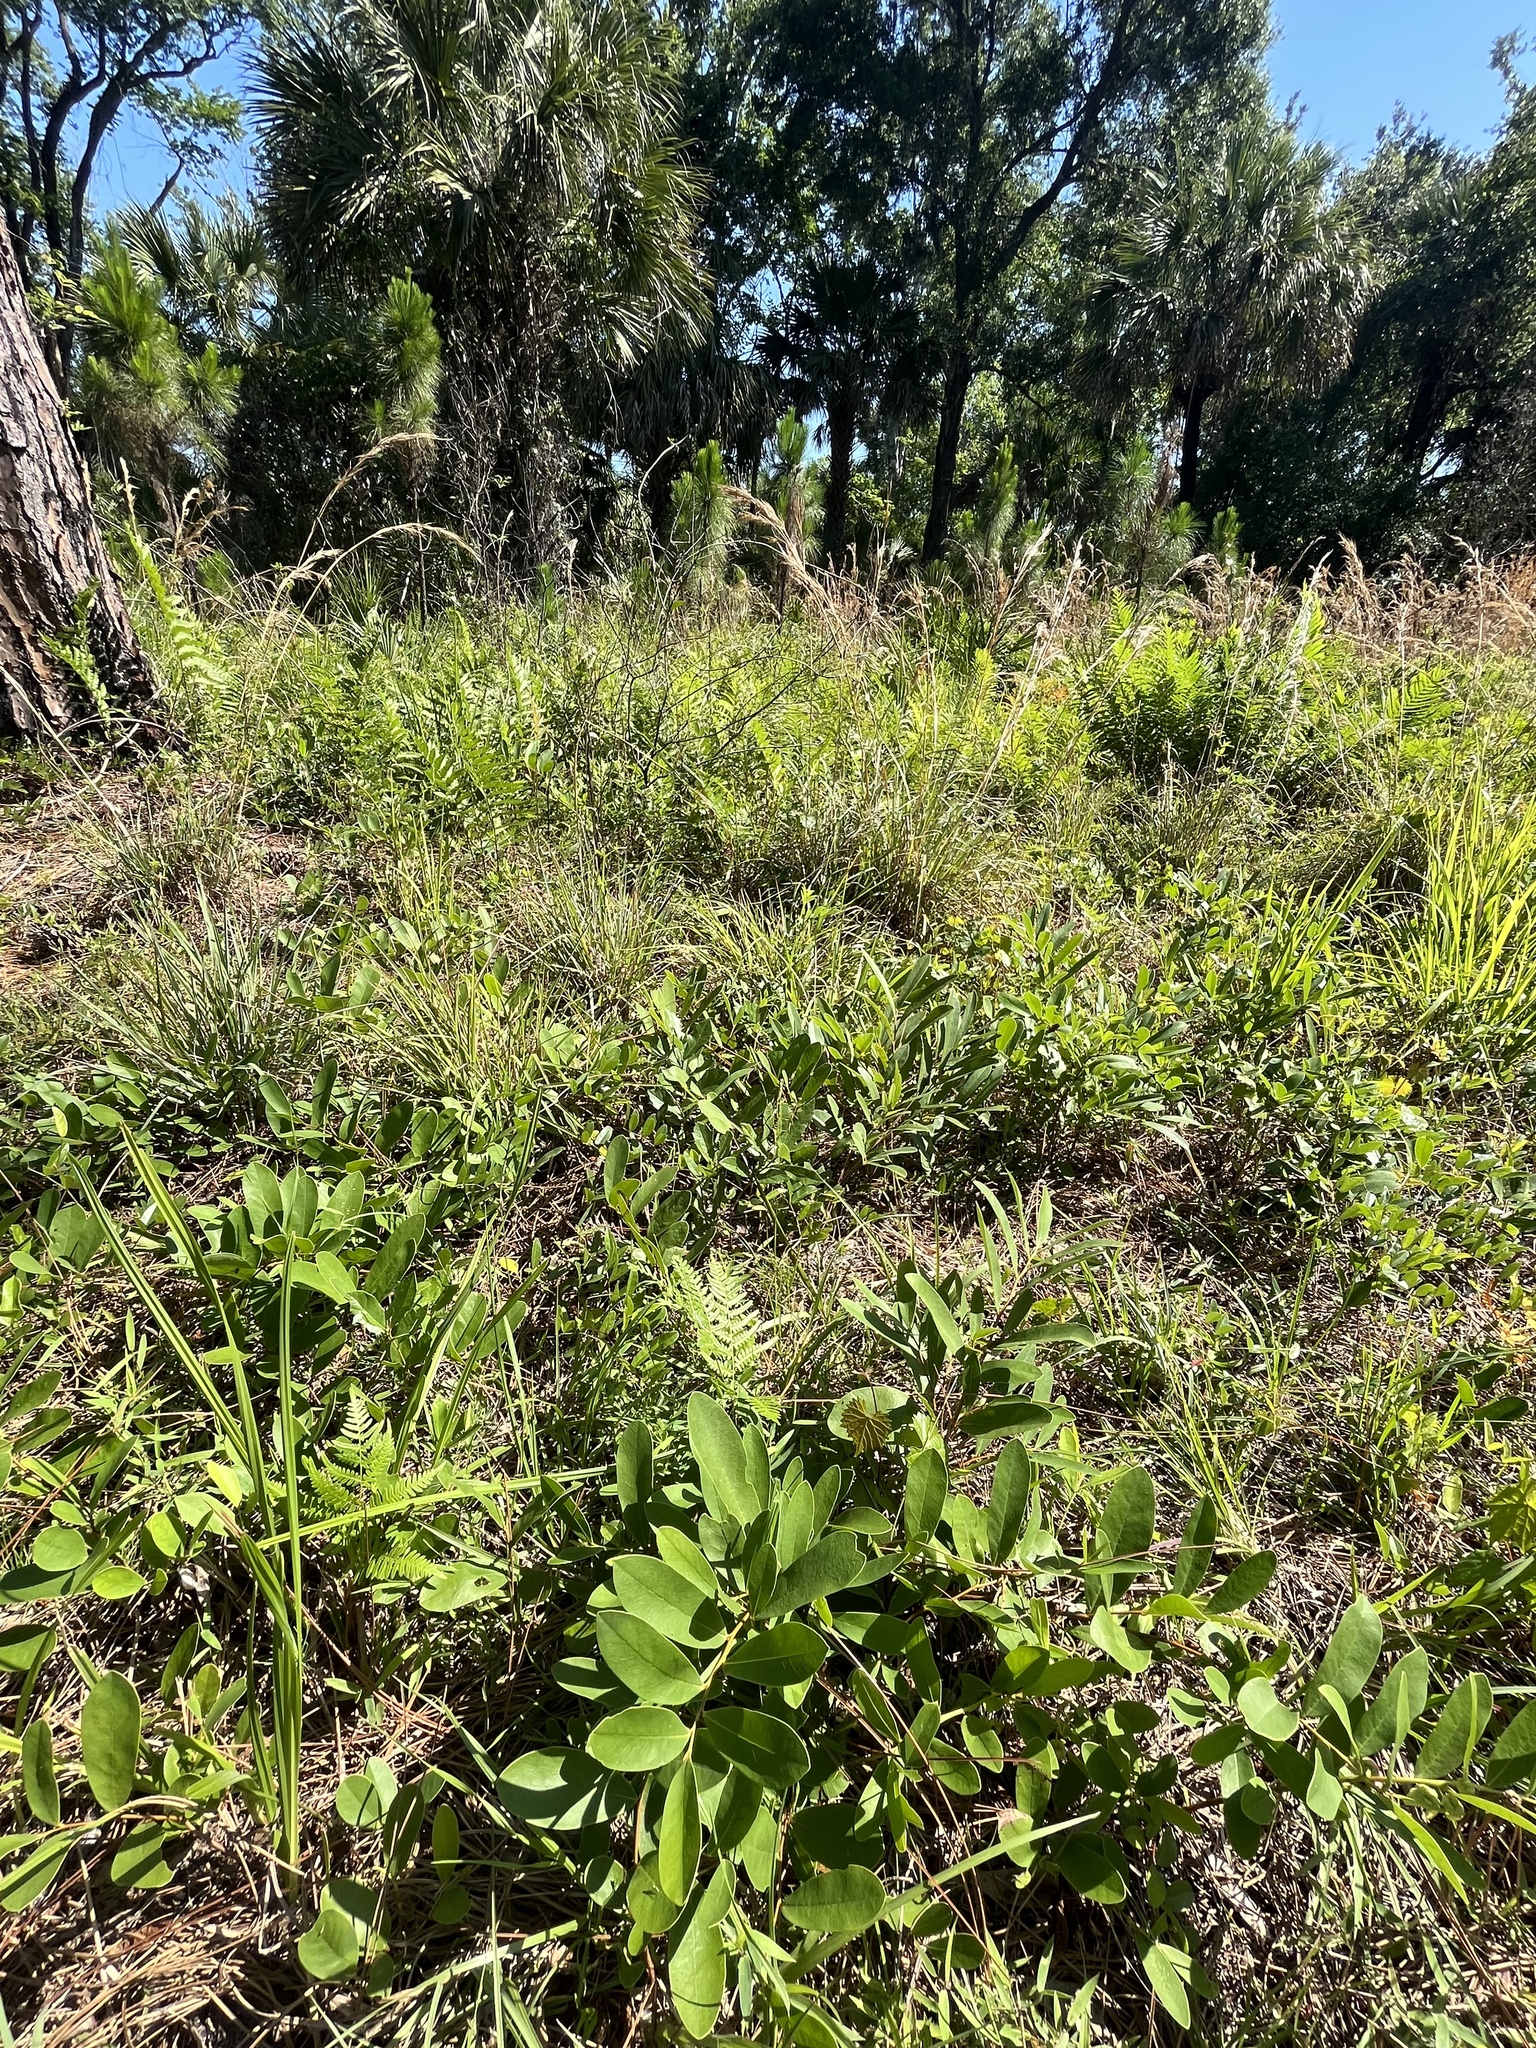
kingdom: Plantae
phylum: Tracheophyta
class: Magnoliopsida
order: Magnoliales
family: Annonaceae
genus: Asimina
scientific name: Asimina pygmaea
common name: Dwarf pawpaw
